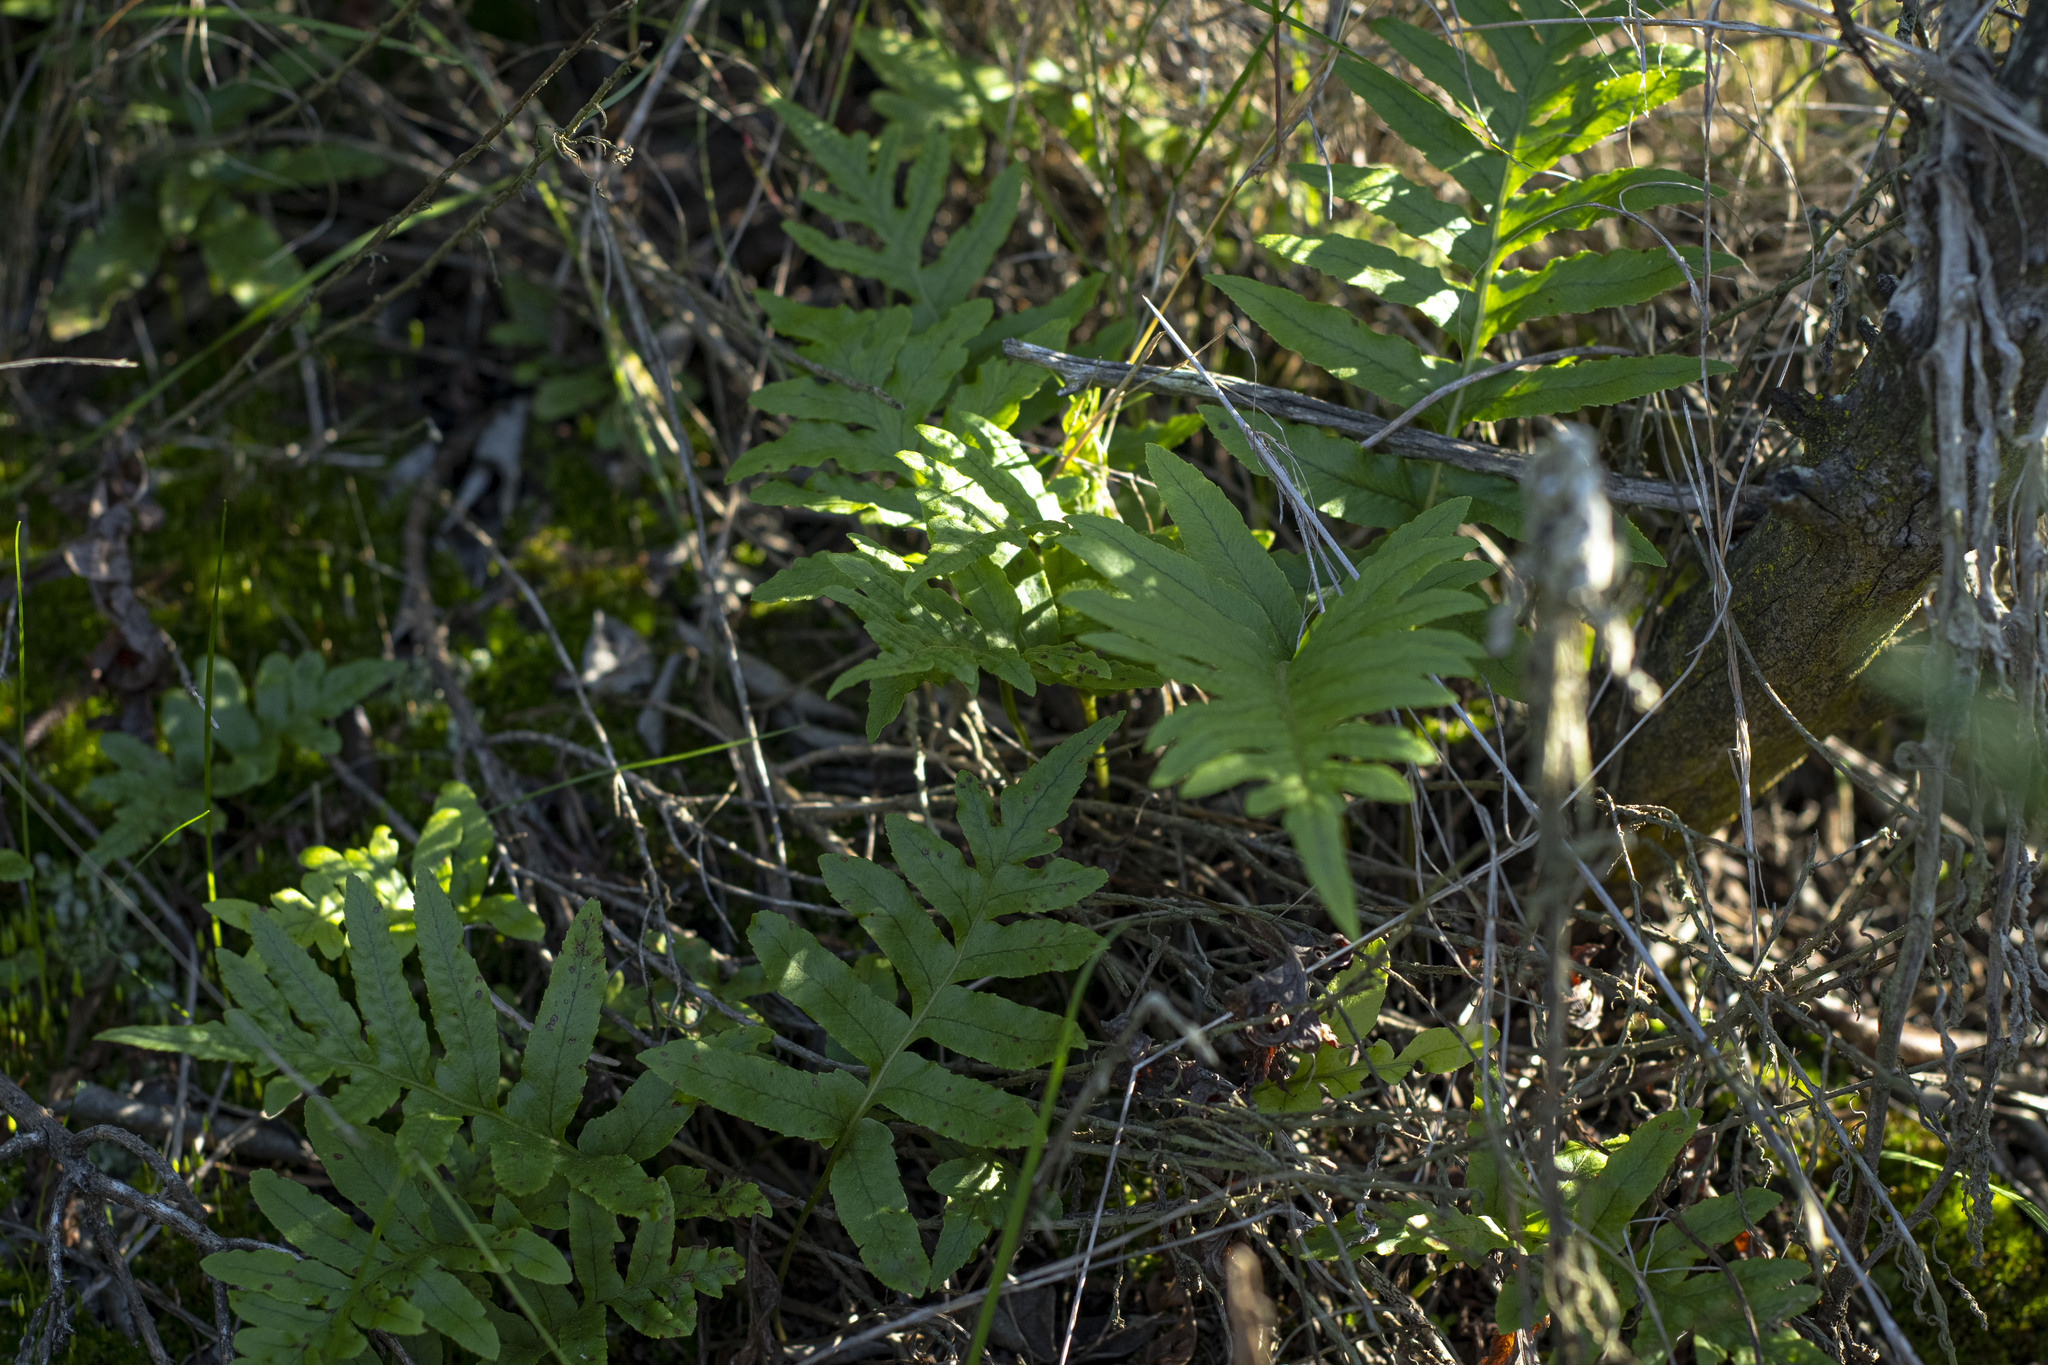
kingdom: Plantae
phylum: Tracheophyta
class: Polypodiopsida
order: Polypodiales
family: Polypodiaceae
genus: Polypodium
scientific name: Polypodium californicum
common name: California polypody
